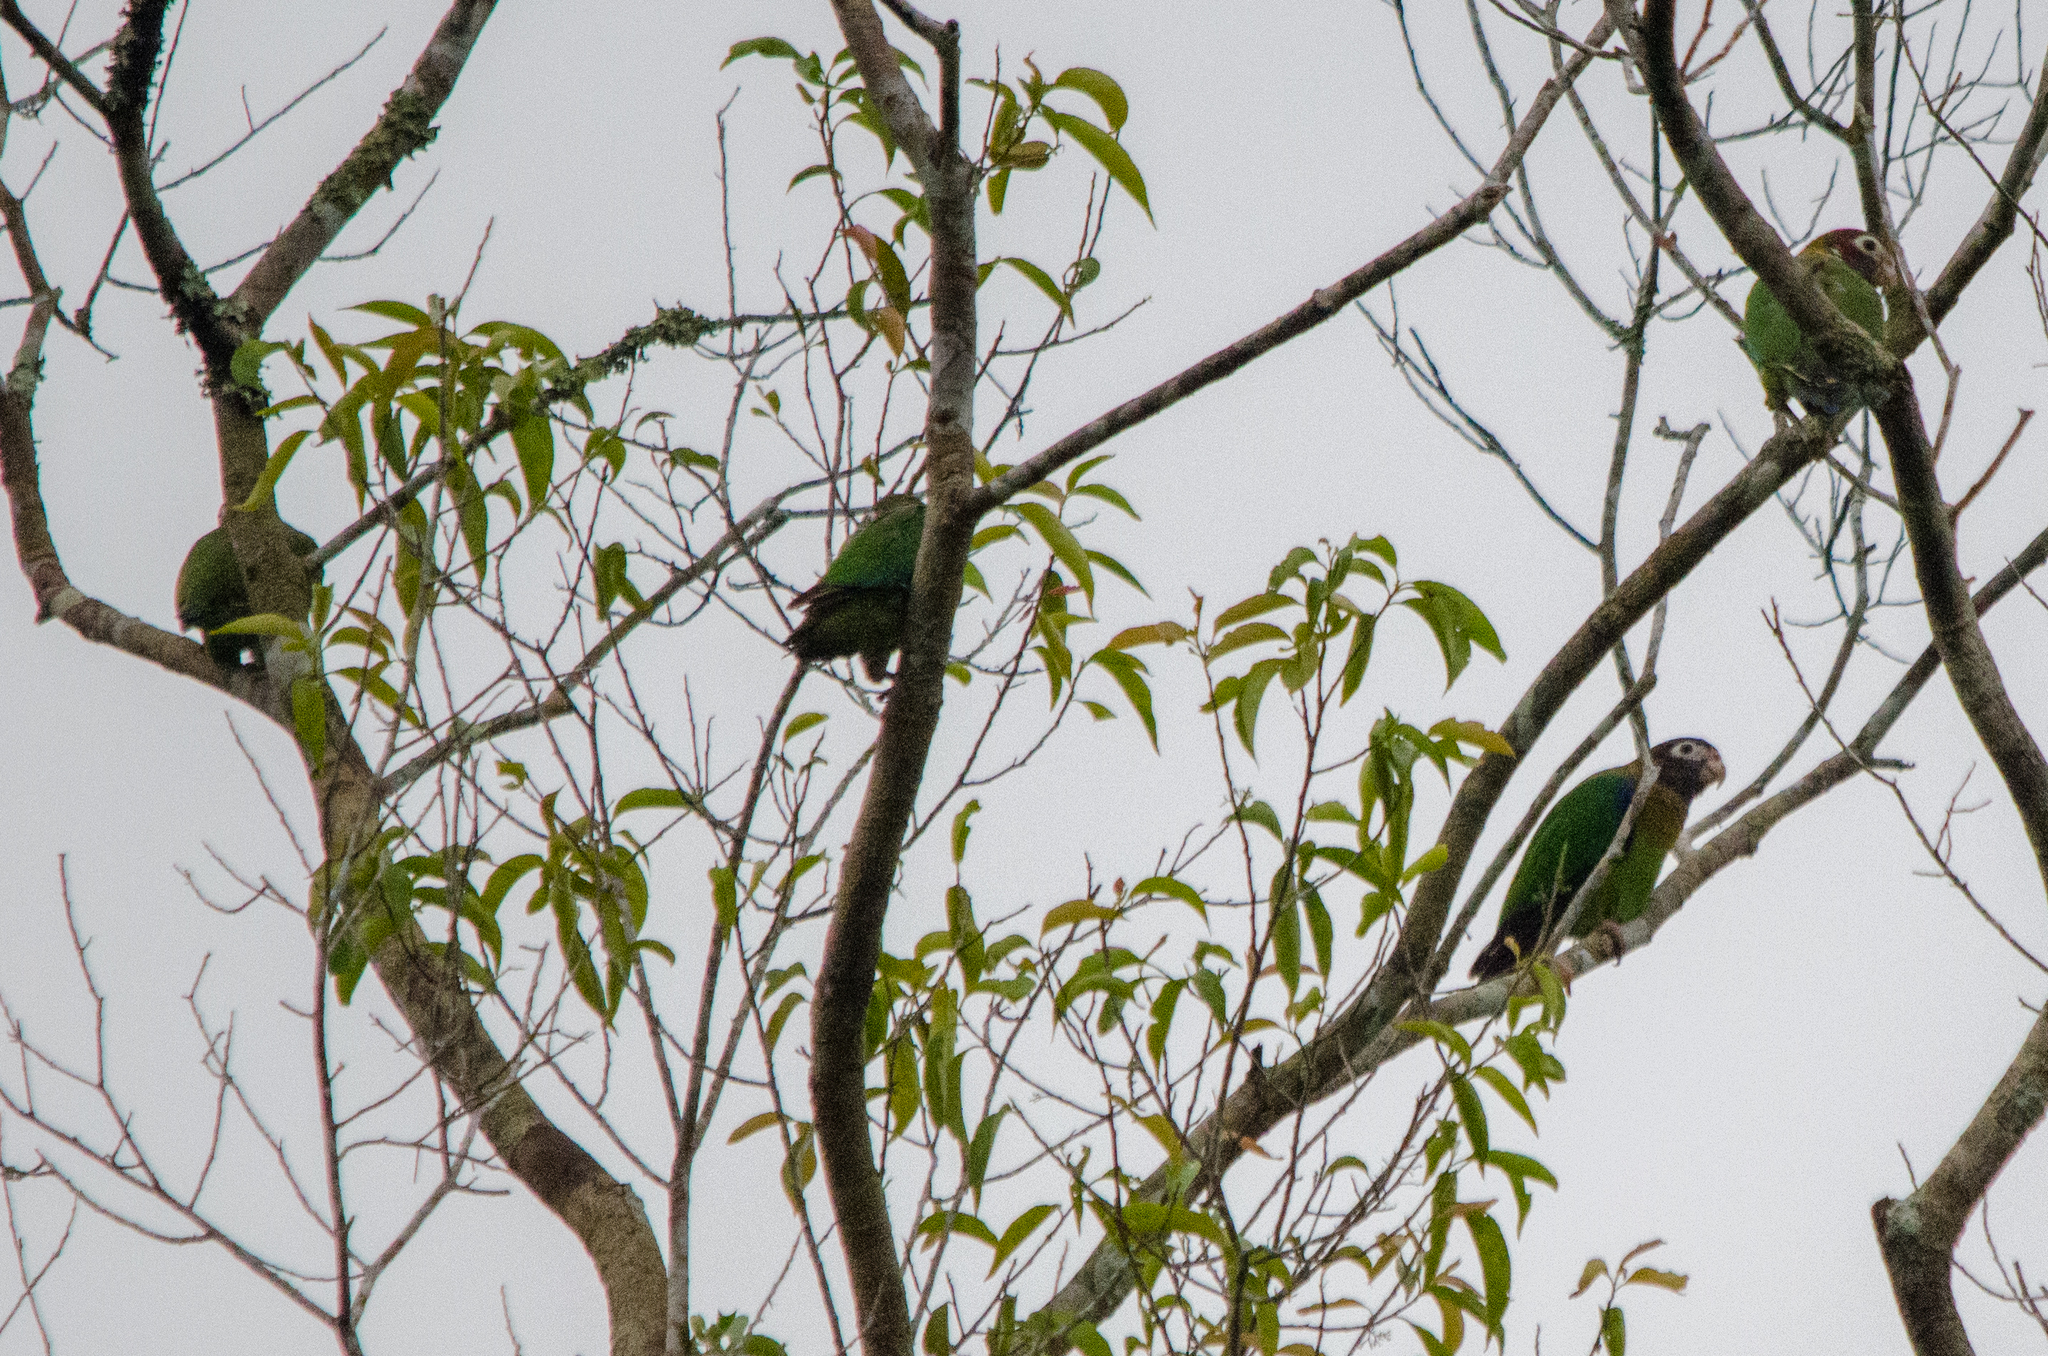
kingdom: Animalia
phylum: Chordata
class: Aves
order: Psittaciformes
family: Psittacidae
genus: Pionopsitta
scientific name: Pionopsitta haematotis
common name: Brown-hooded parrot
